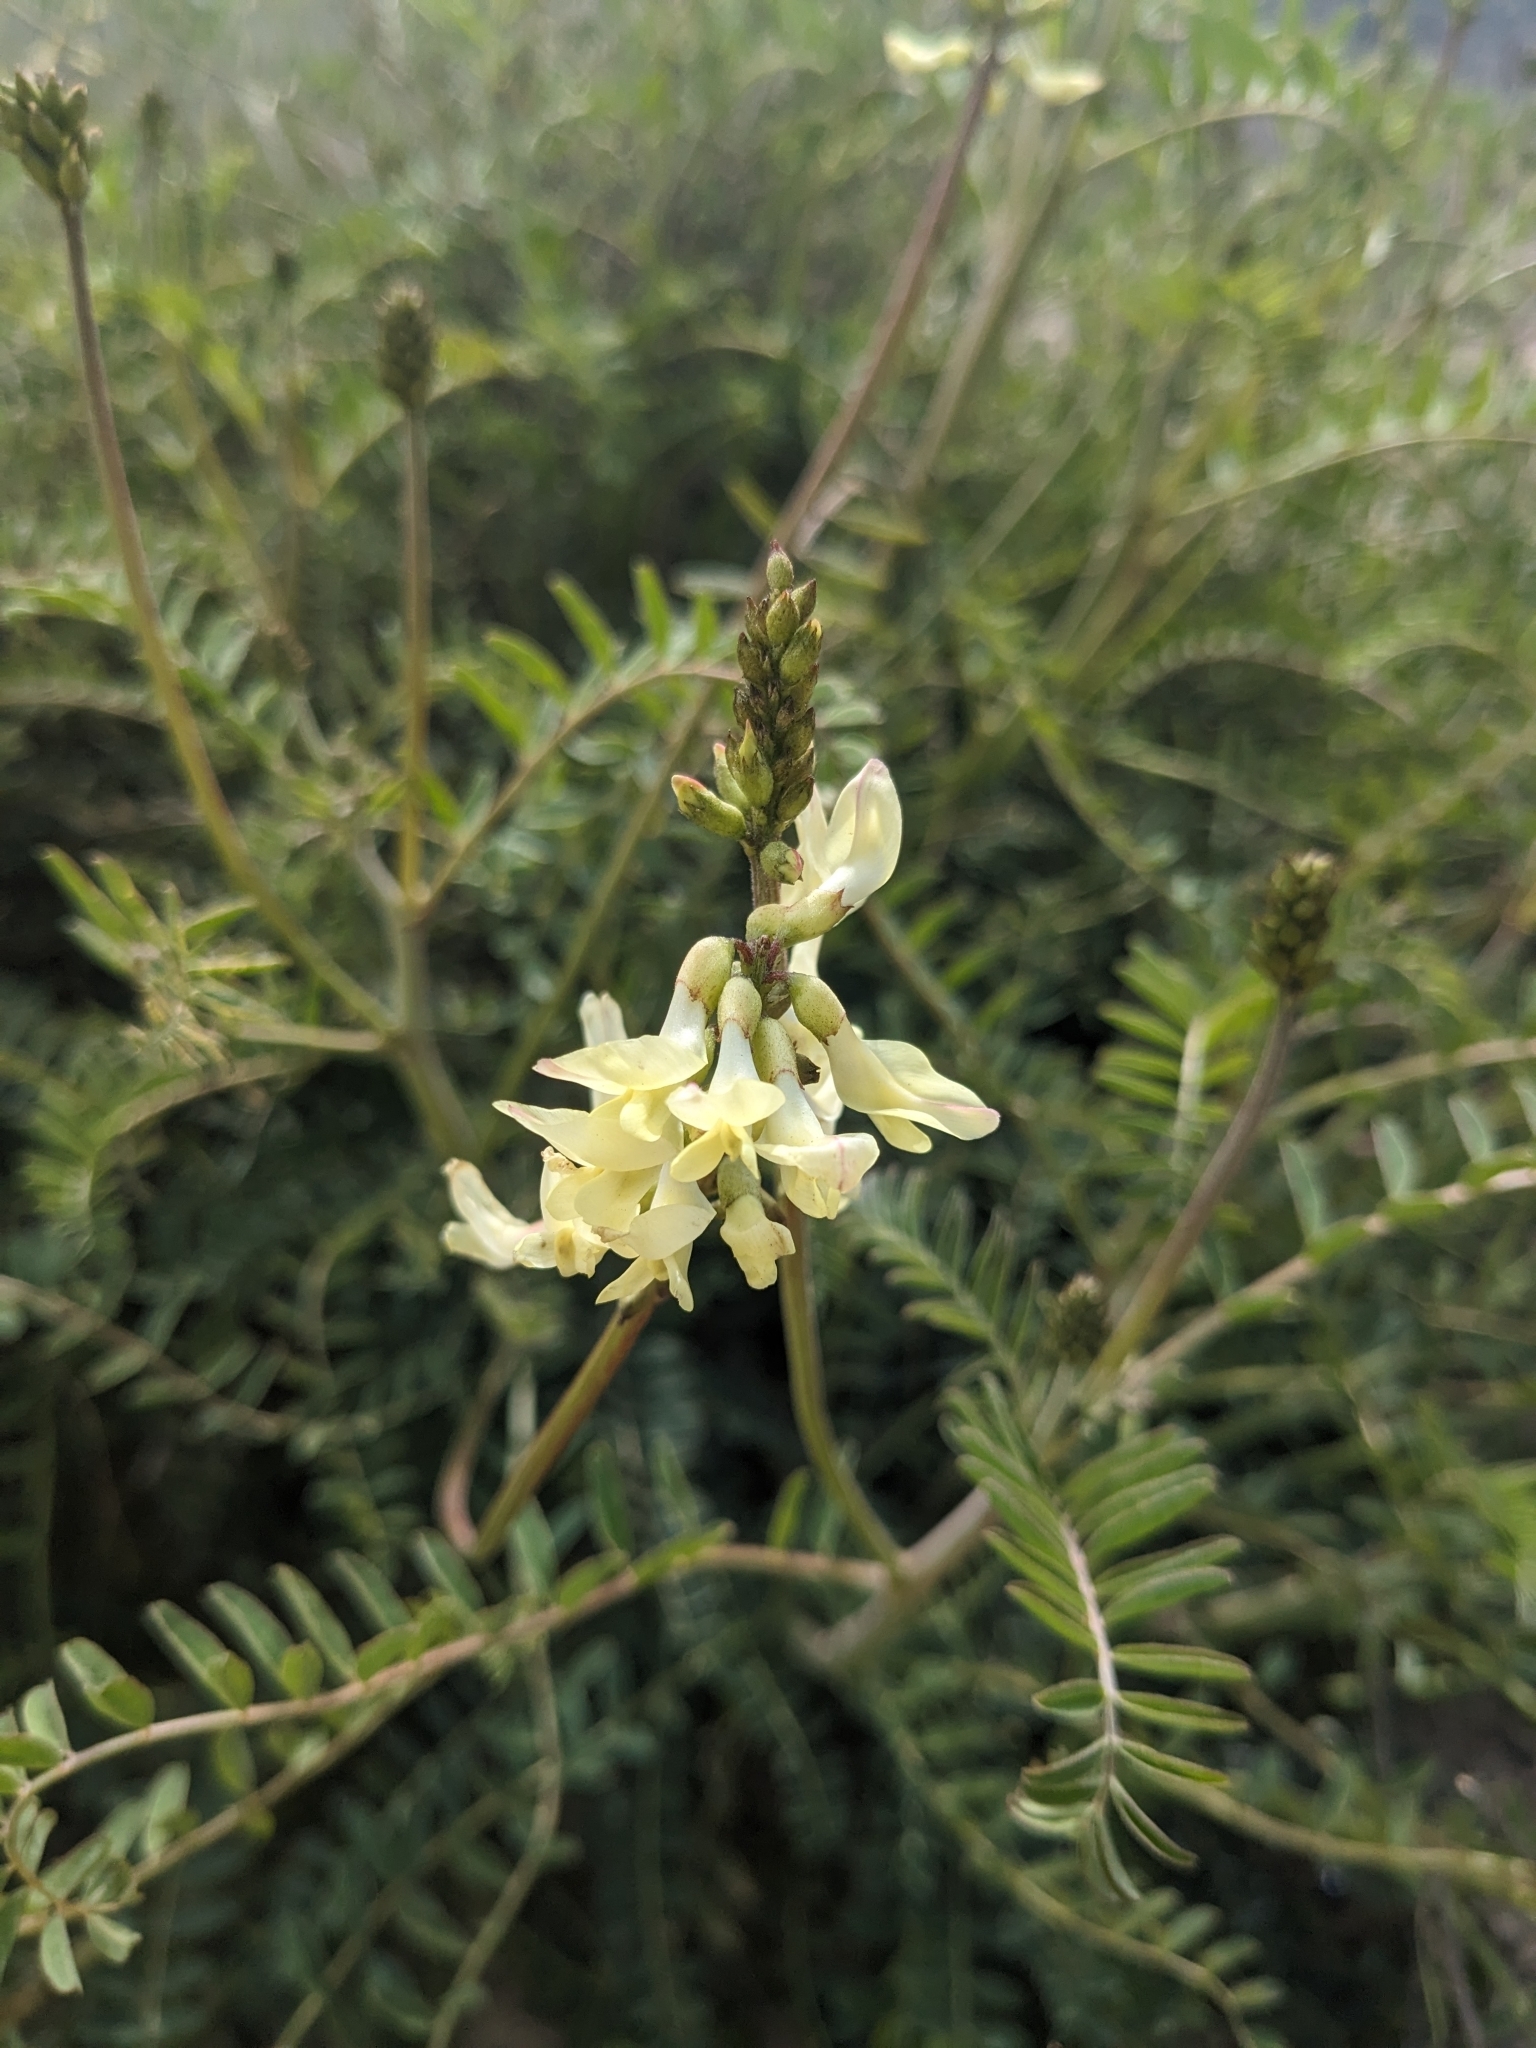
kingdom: Plantae
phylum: Tracheophyta
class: Magnoliopsida
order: Fabales
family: Fabaceae
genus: Astragalus
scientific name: Astragalus trichopodus
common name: Santa barbara milk-vetch
